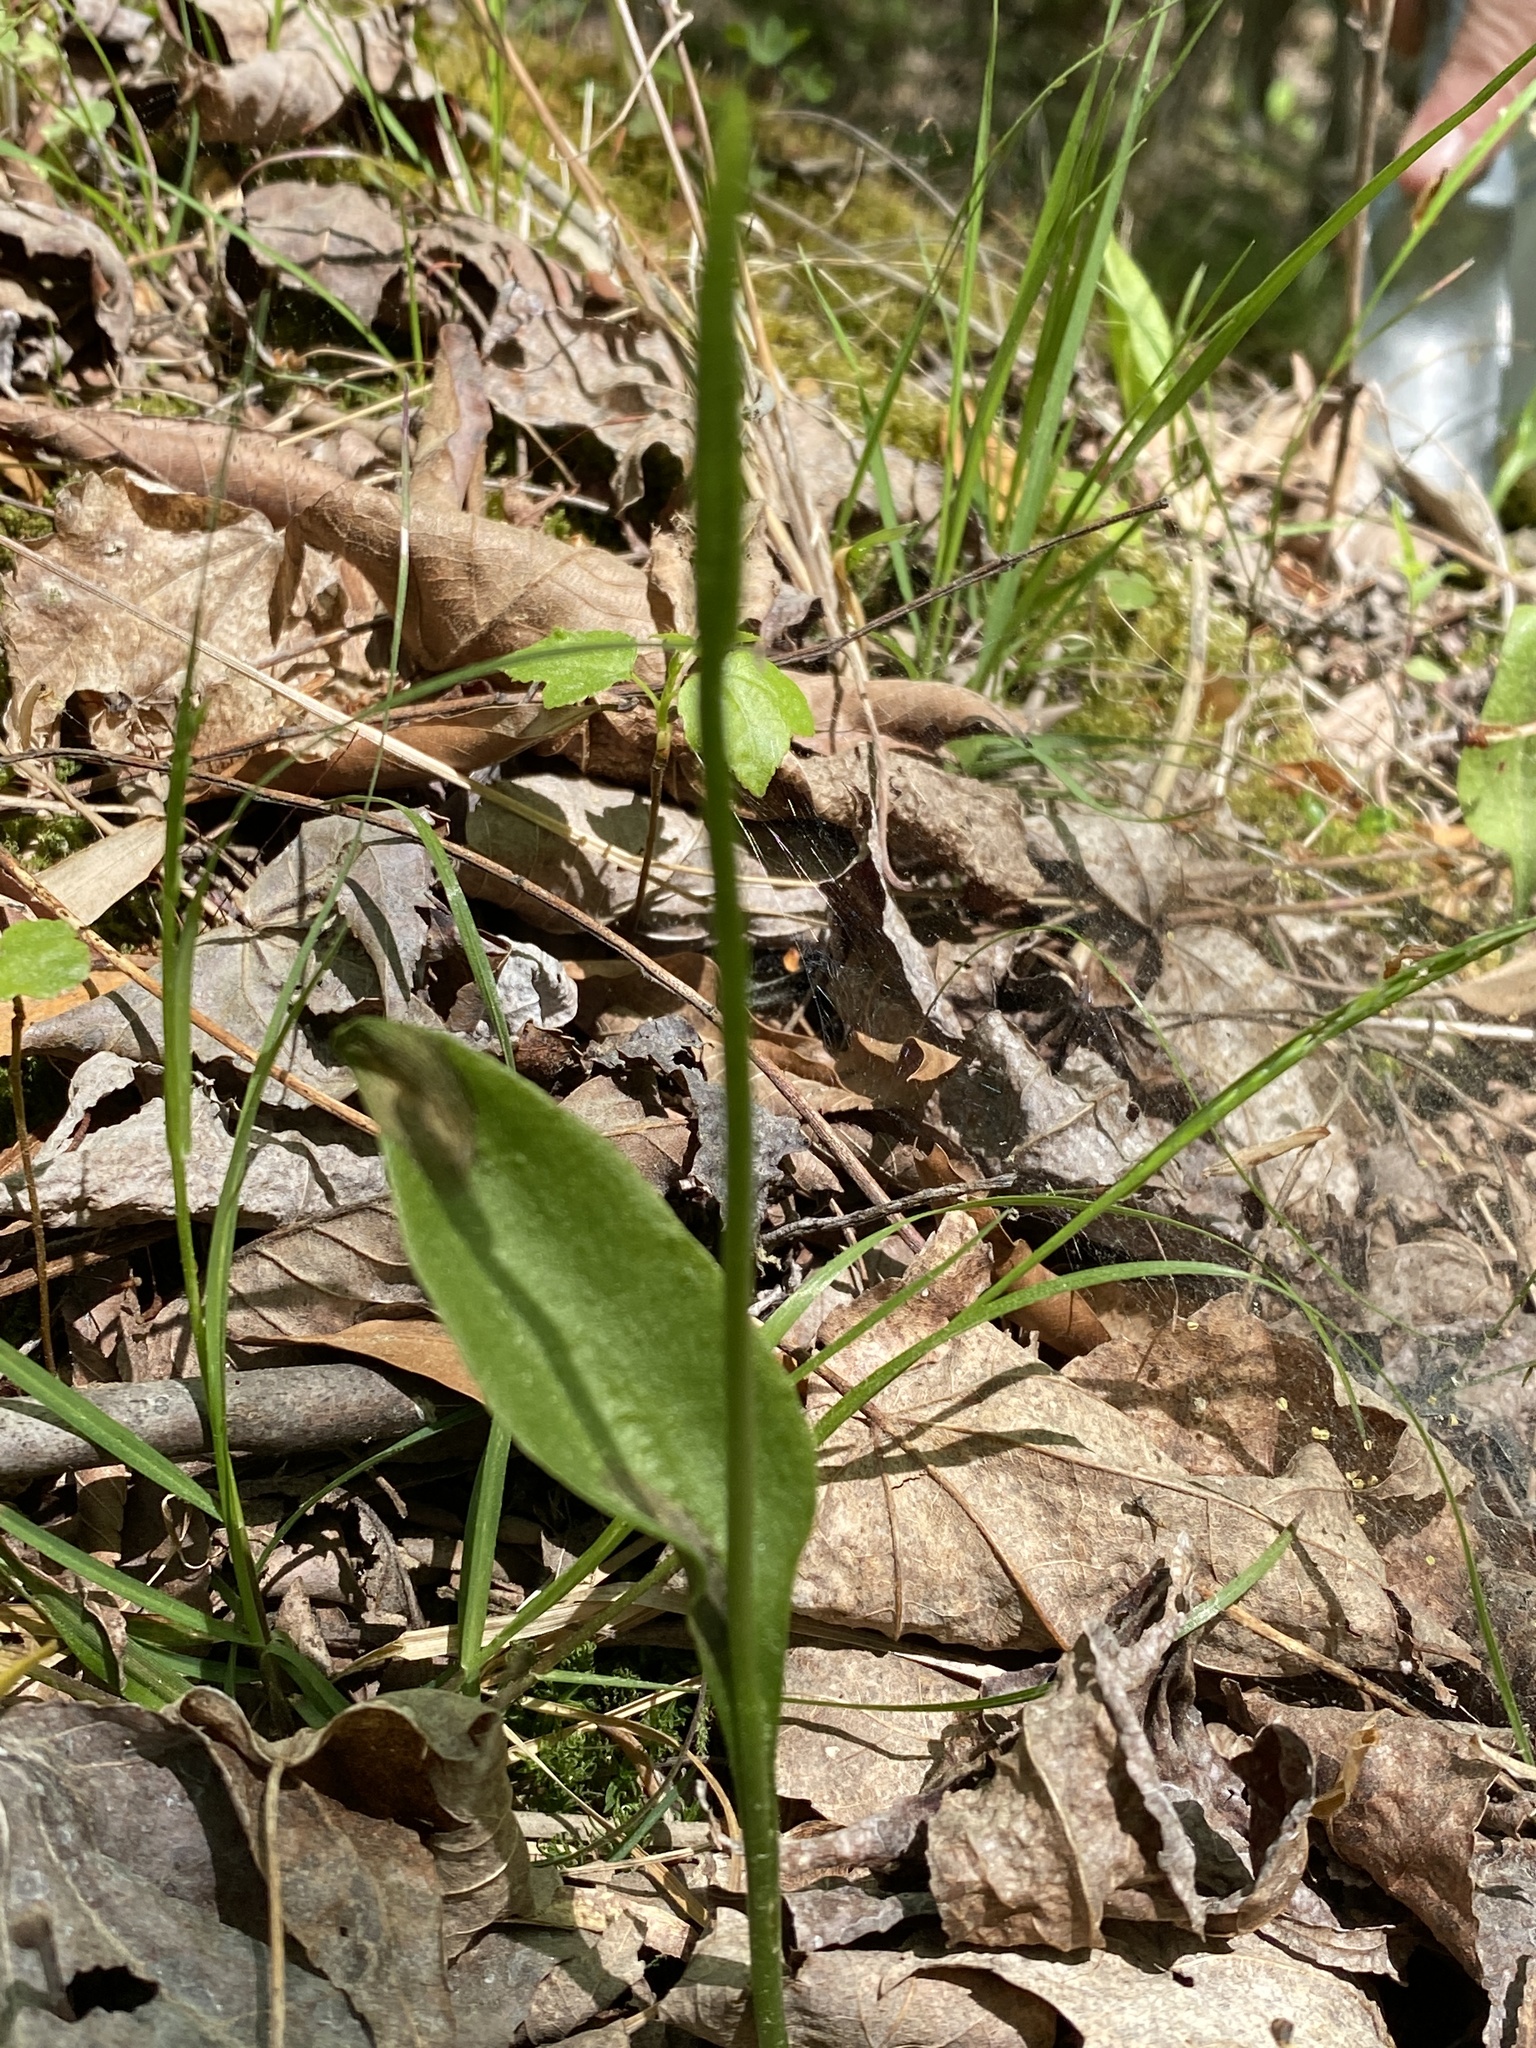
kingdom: Plantae
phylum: Tracheophyta
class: Polypodiopsida
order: Ophioglossales
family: Ophioglossaceae
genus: Ophioglossum
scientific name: Ophioglossum vulgatum
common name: Adder's-tongue
